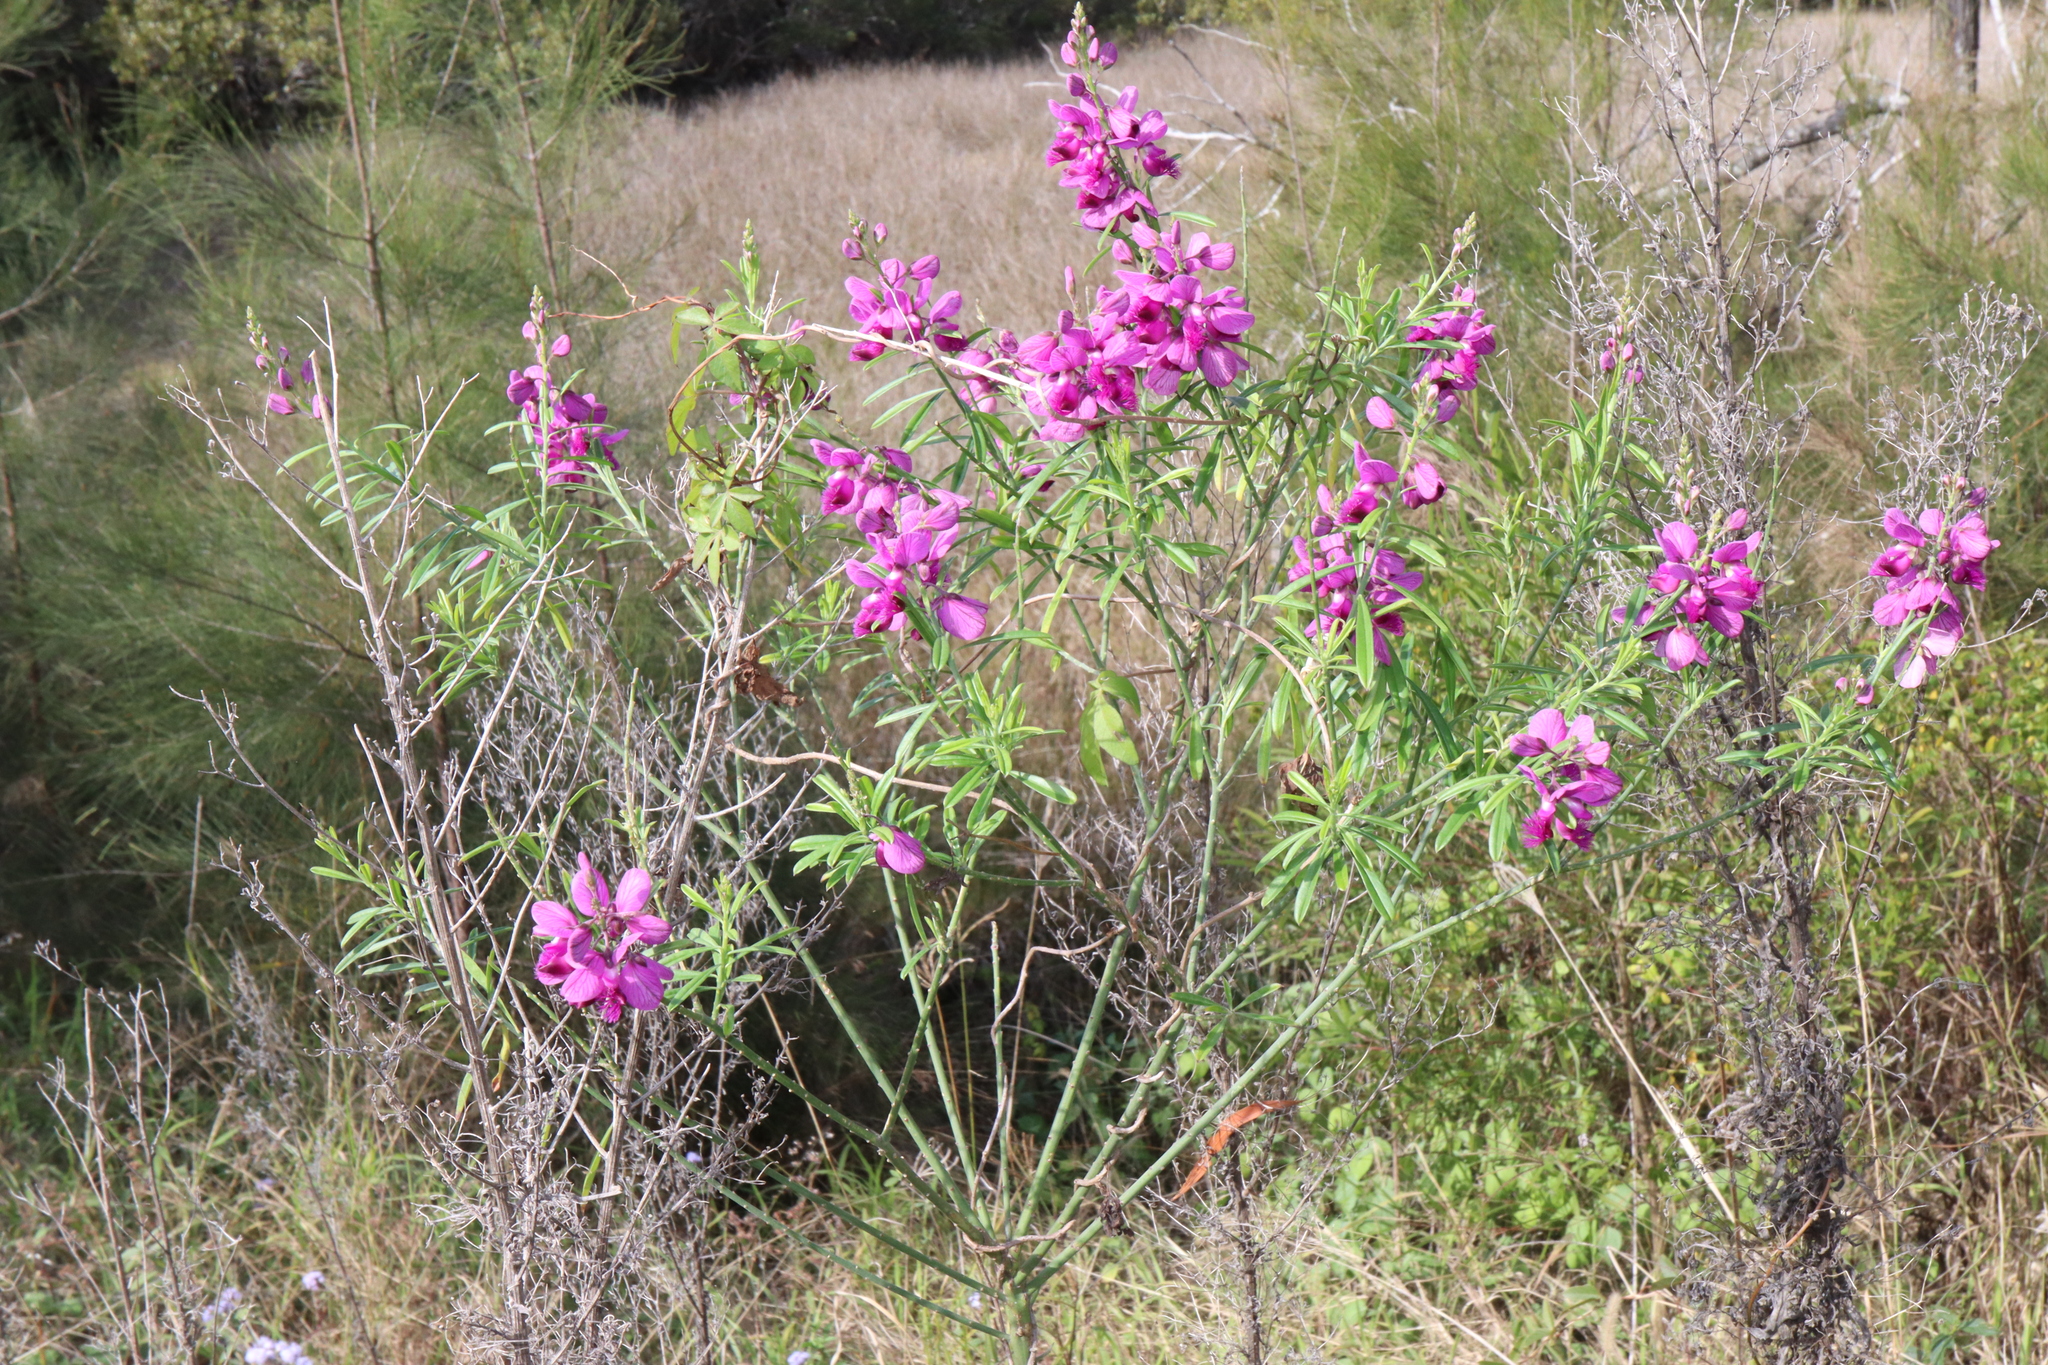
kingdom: Plantae
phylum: Tracheophyta
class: Magnoliopsida
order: Fabales
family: Polygalaceae
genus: Polygala
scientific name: Polygala virgata
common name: Milkwort
